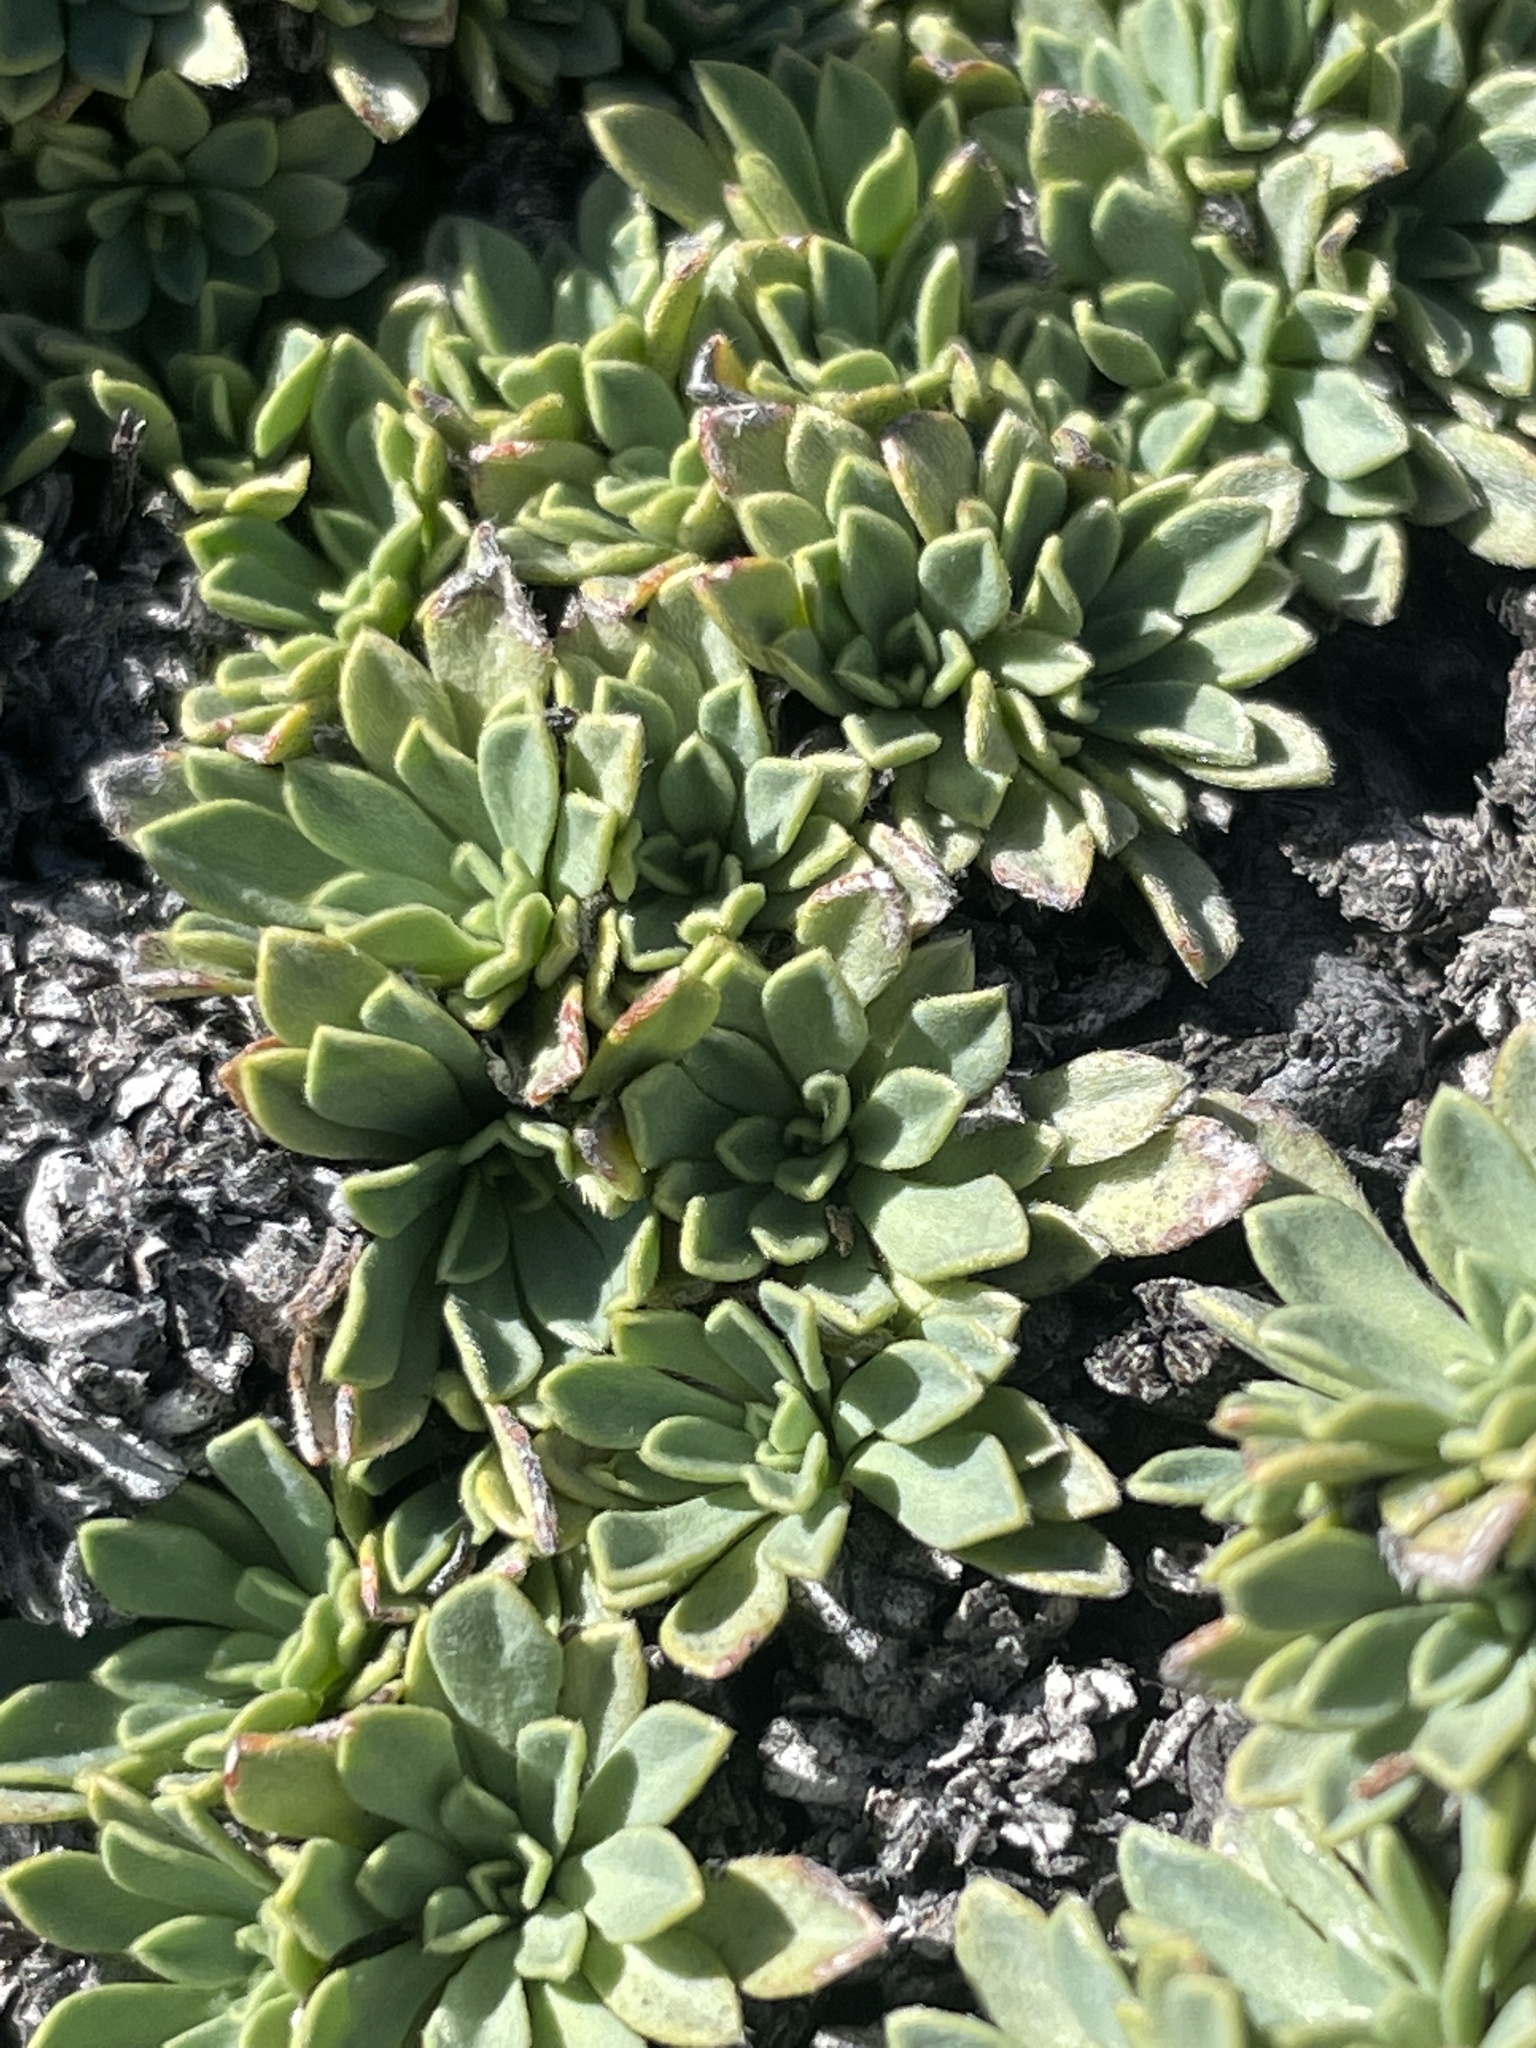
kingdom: Plantae
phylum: Tracheophyta
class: Magnoliopsida
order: Rosales
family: Rosaceae
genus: Petrophytum
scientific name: Petrophytum caespitosum
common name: Mat rockspirea
